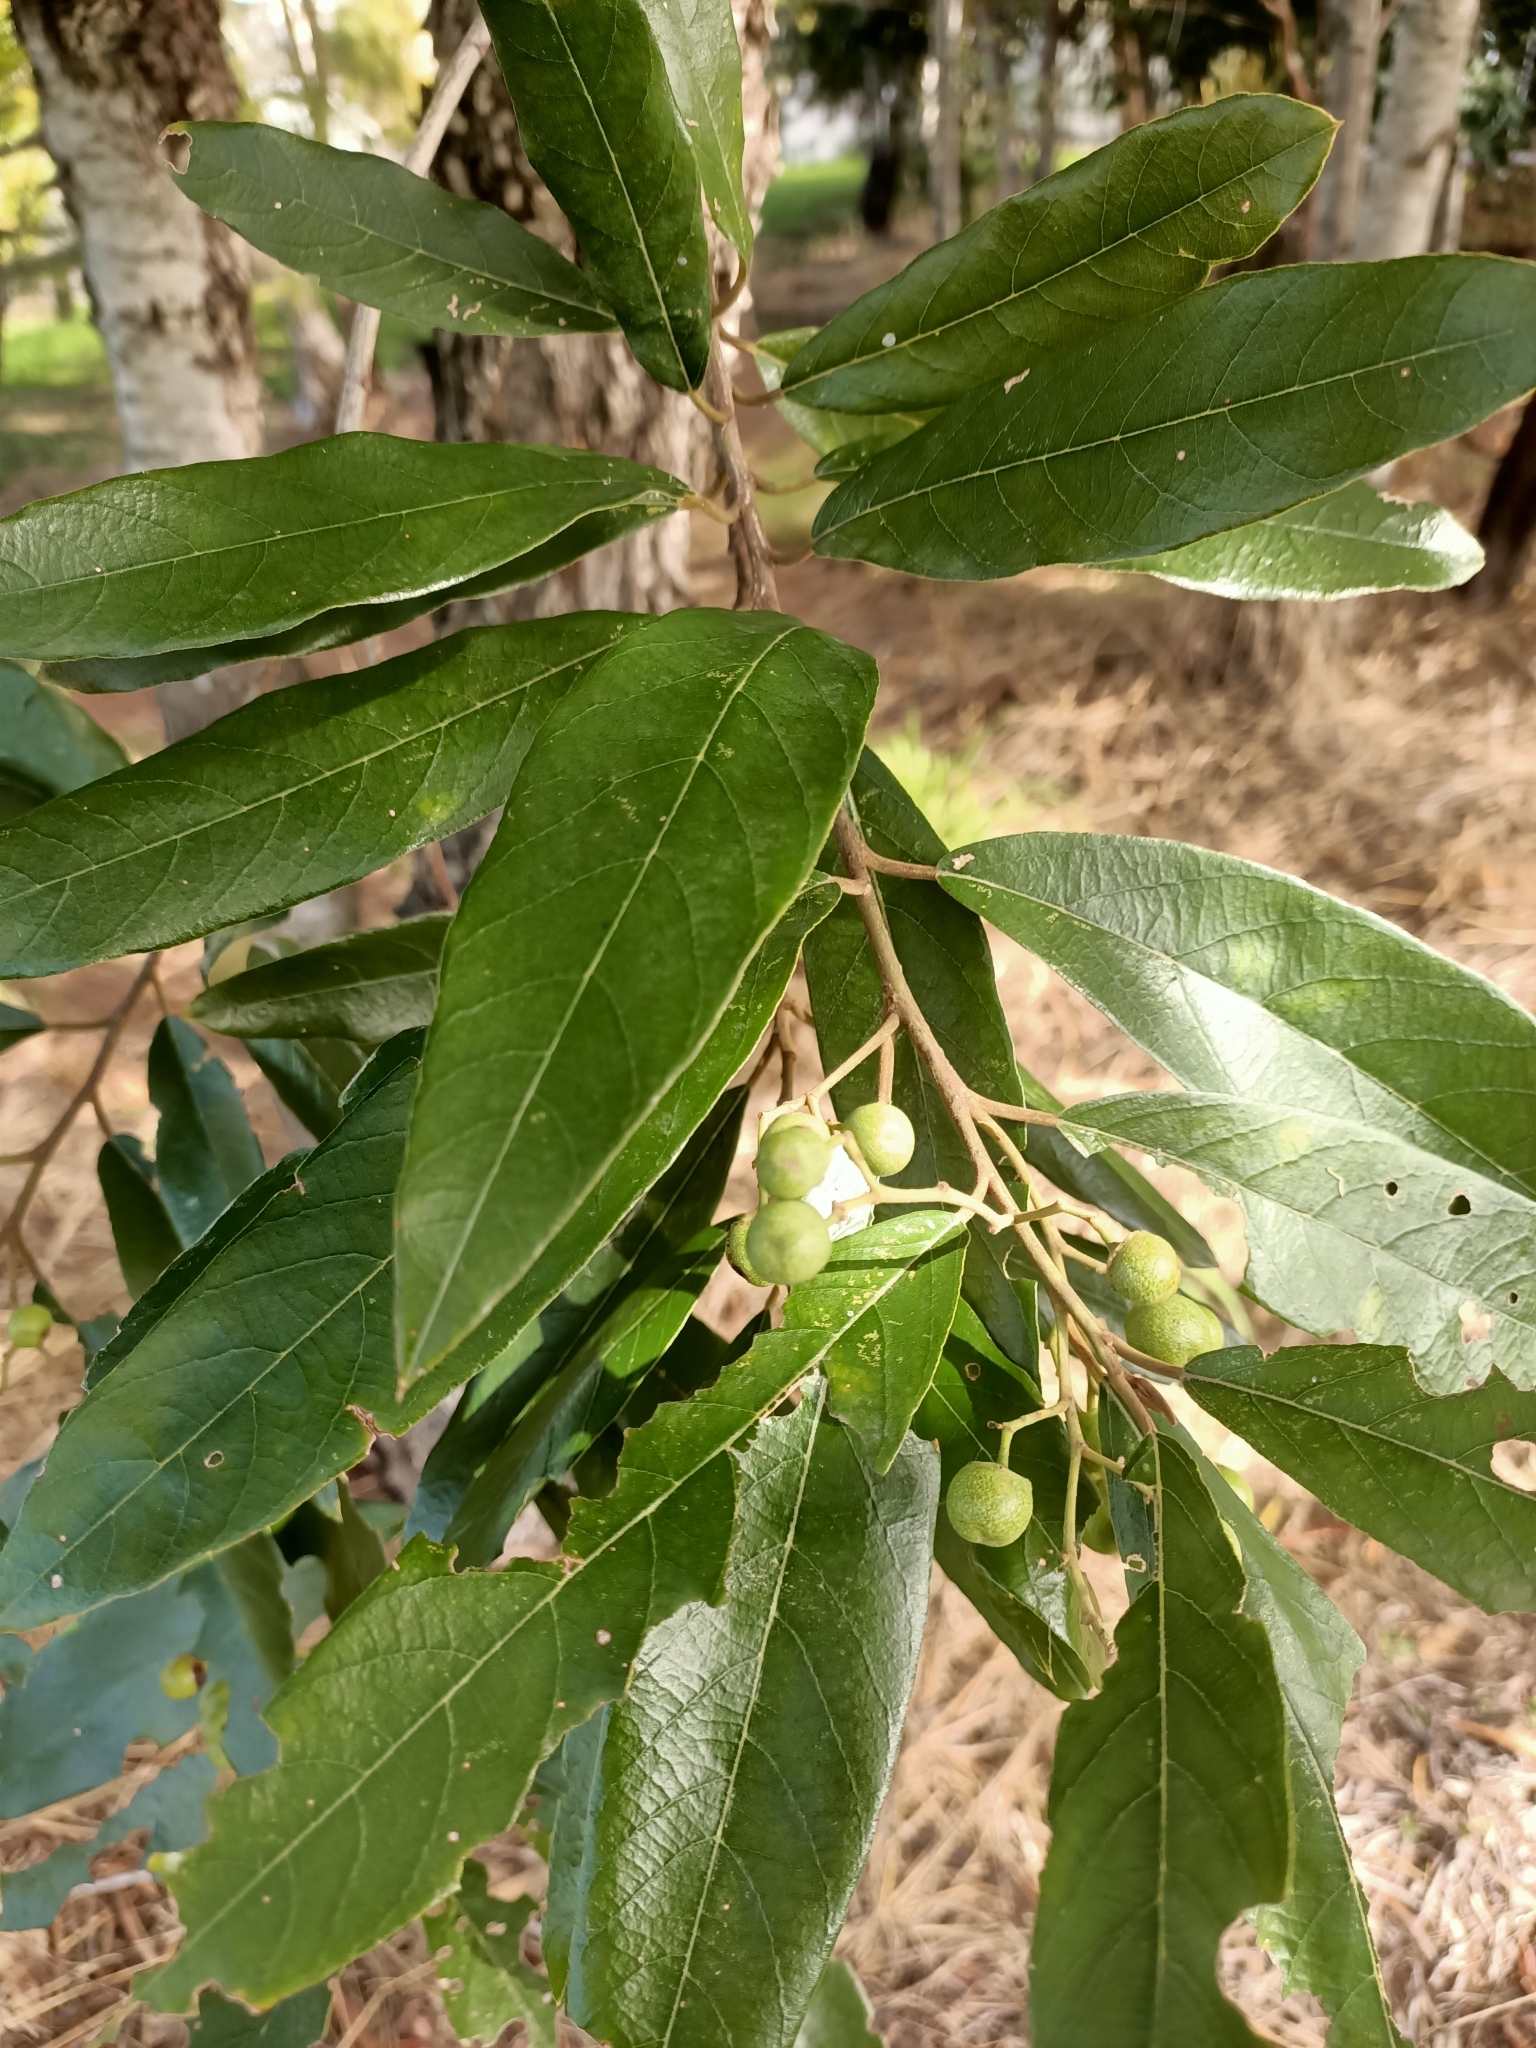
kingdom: Plantae
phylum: Tracheophyta
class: Magnoliopsida
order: Rosales
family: Rhamnaceae
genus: Alphitonia
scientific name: Alphitonia excelsa
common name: Red ash
